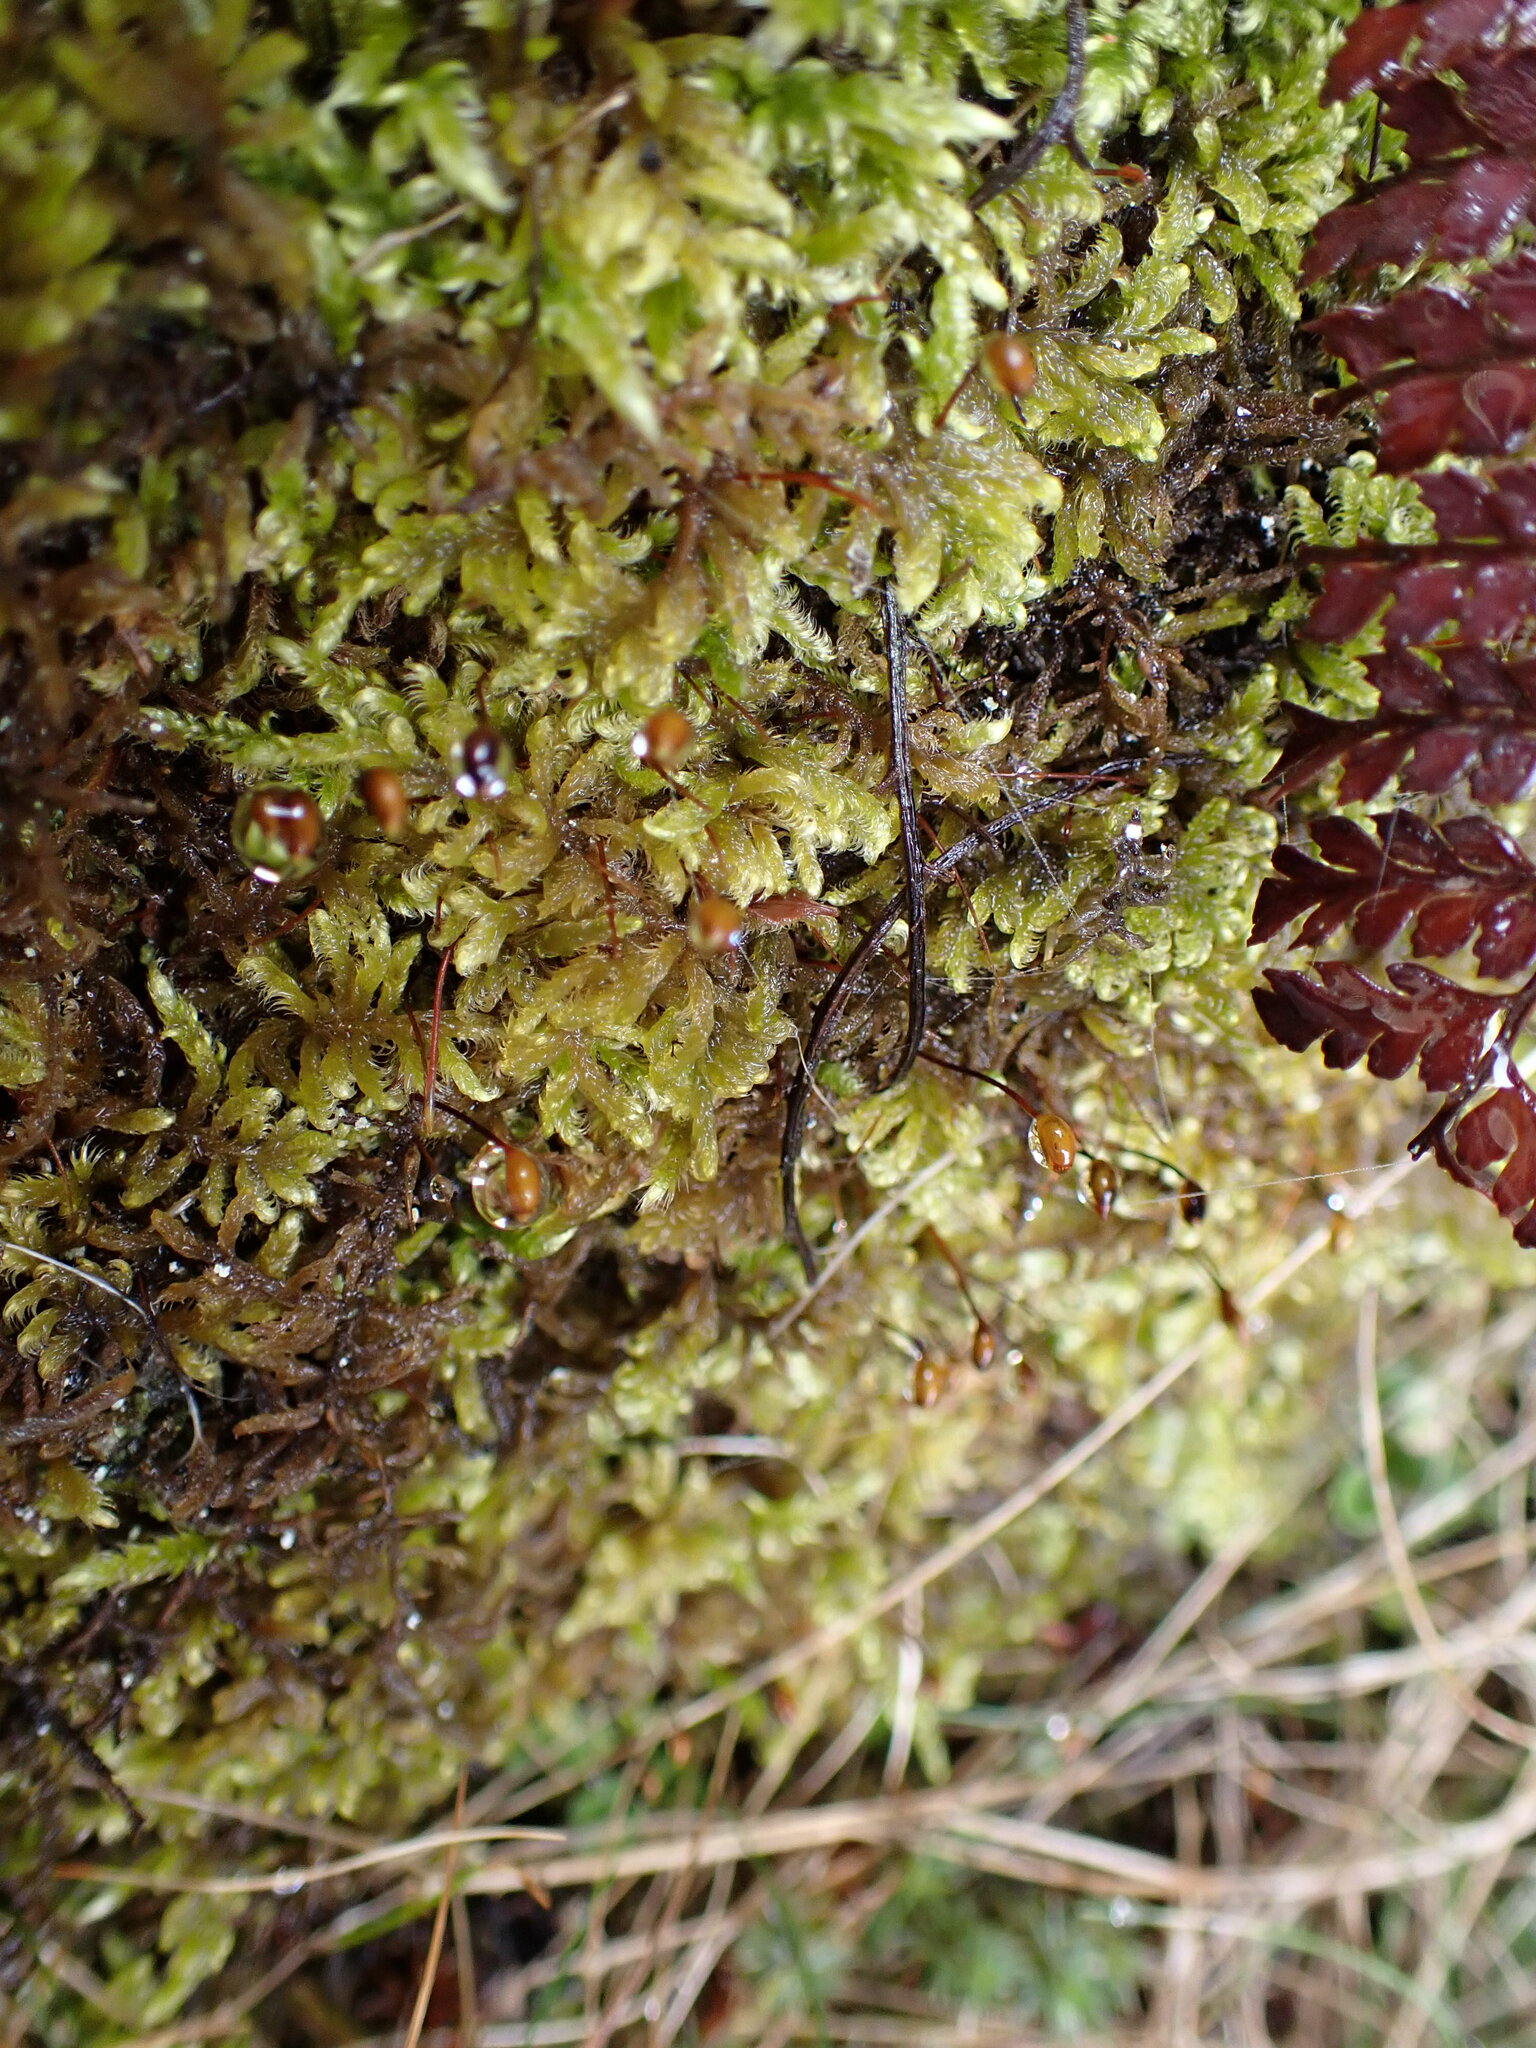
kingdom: Plantae
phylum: Bryophyta
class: Bryopsida
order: Hypnales
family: Hypnaceae
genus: Hypnum
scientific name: Hypnum cupressiforme
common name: Cypress-leaved plait-moss
